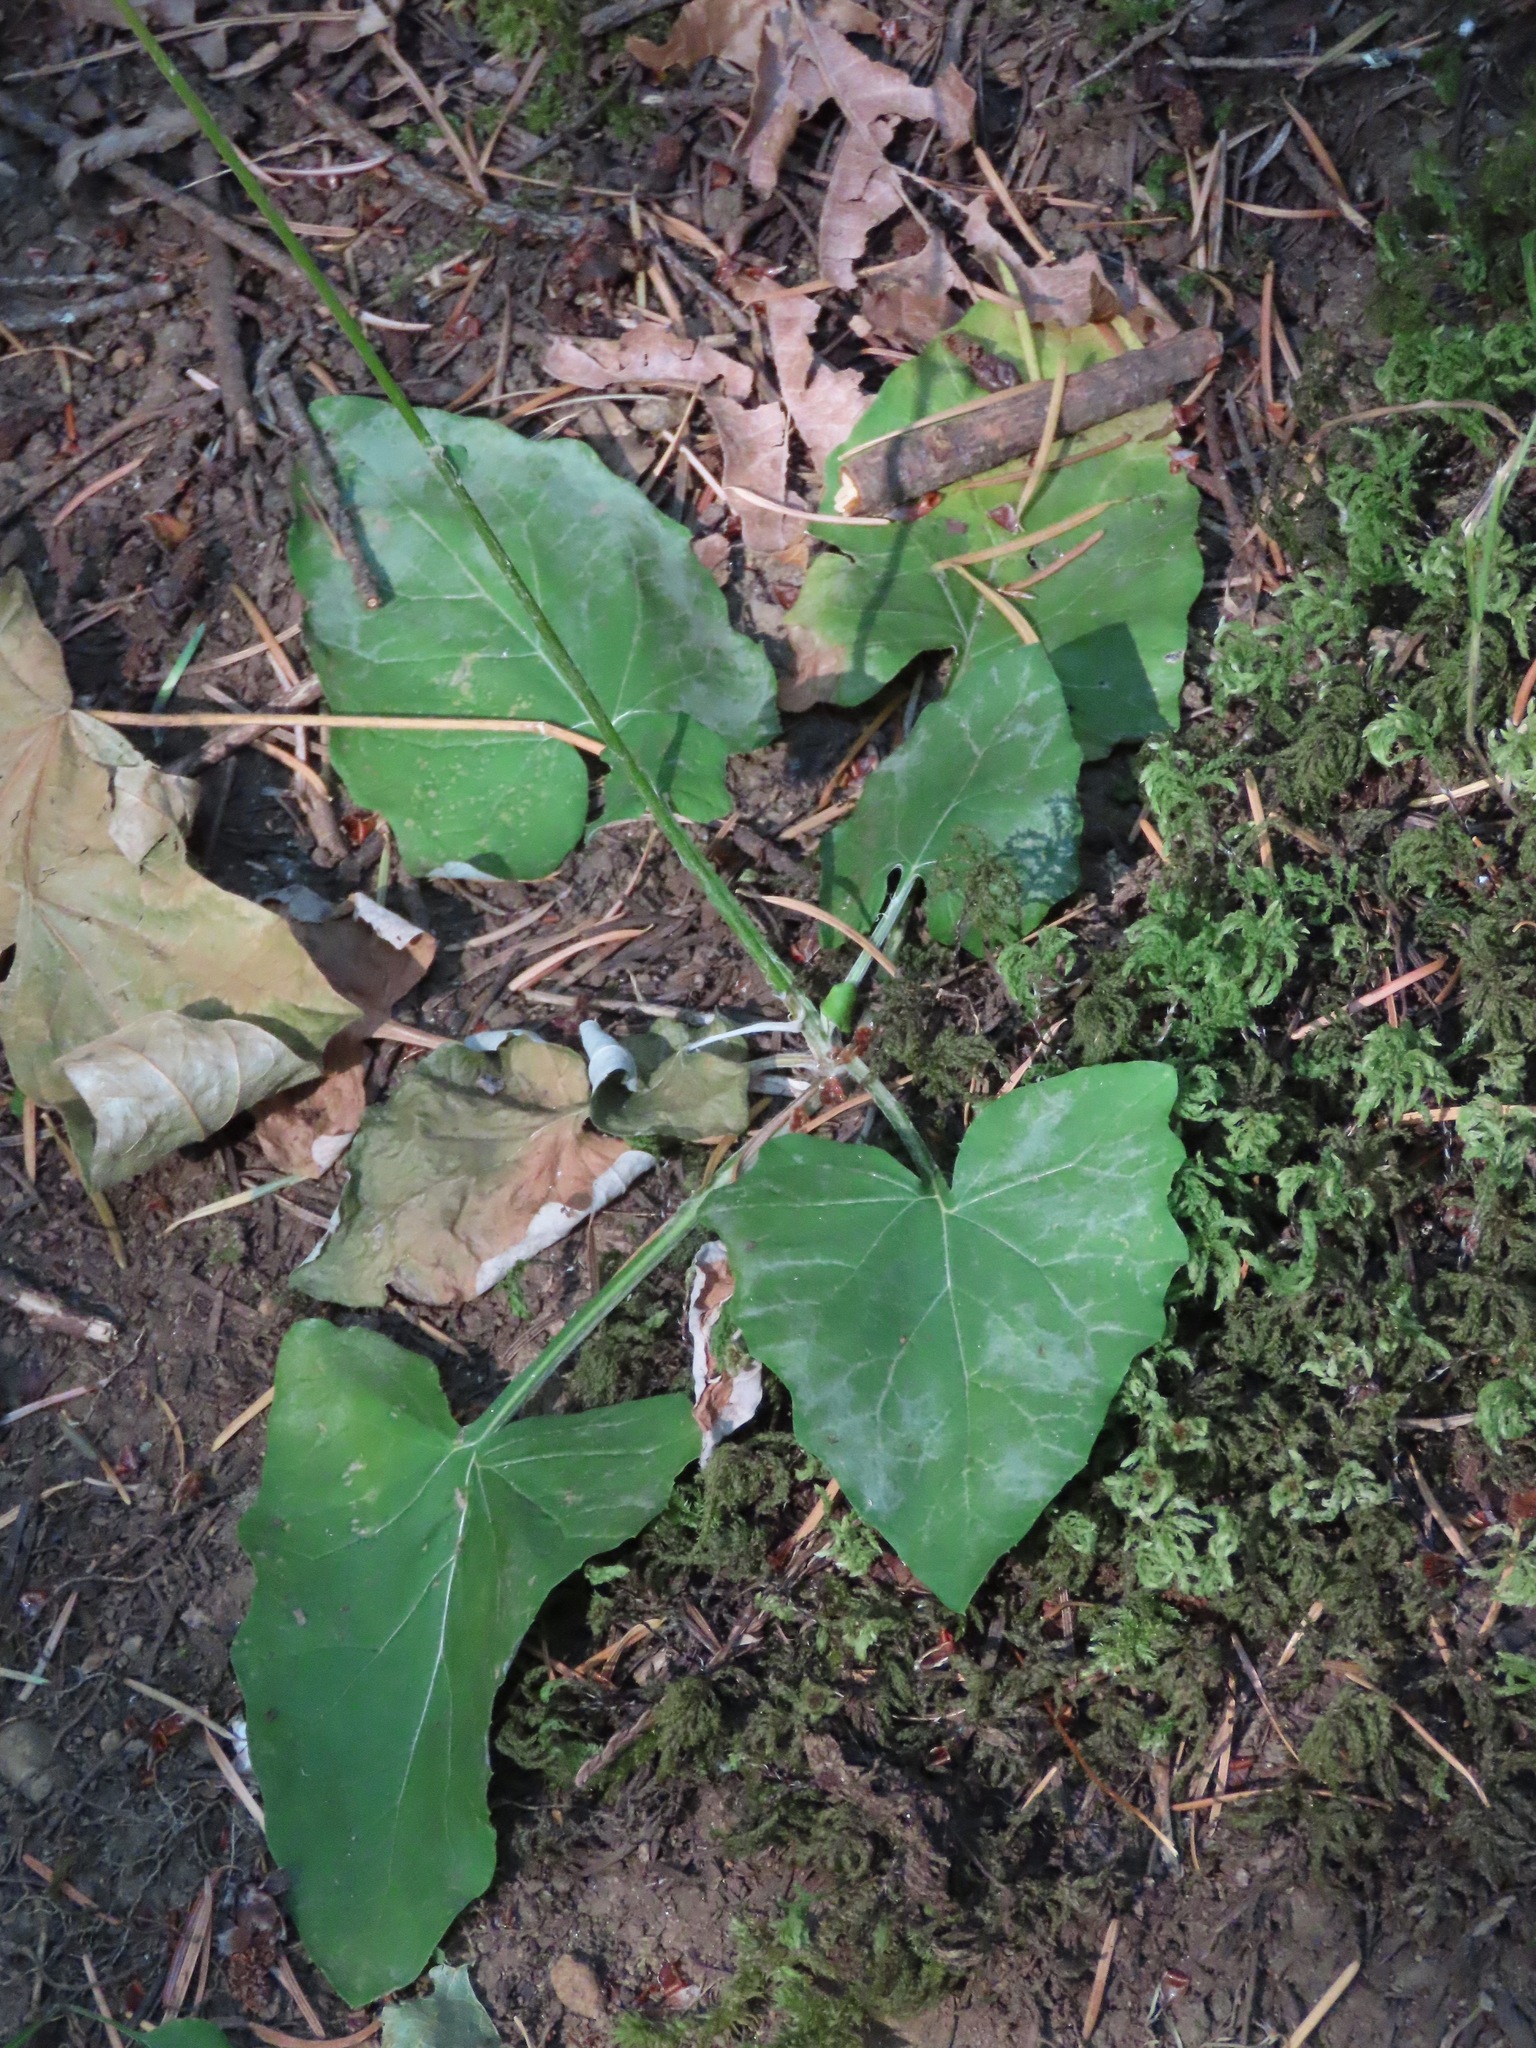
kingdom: Plantae
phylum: Tracheophyta
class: Magnoliopsida
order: Asterales
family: Asteraceae
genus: Adenocaulon
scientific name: Adenocaulon bicolor
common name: Trailplant
